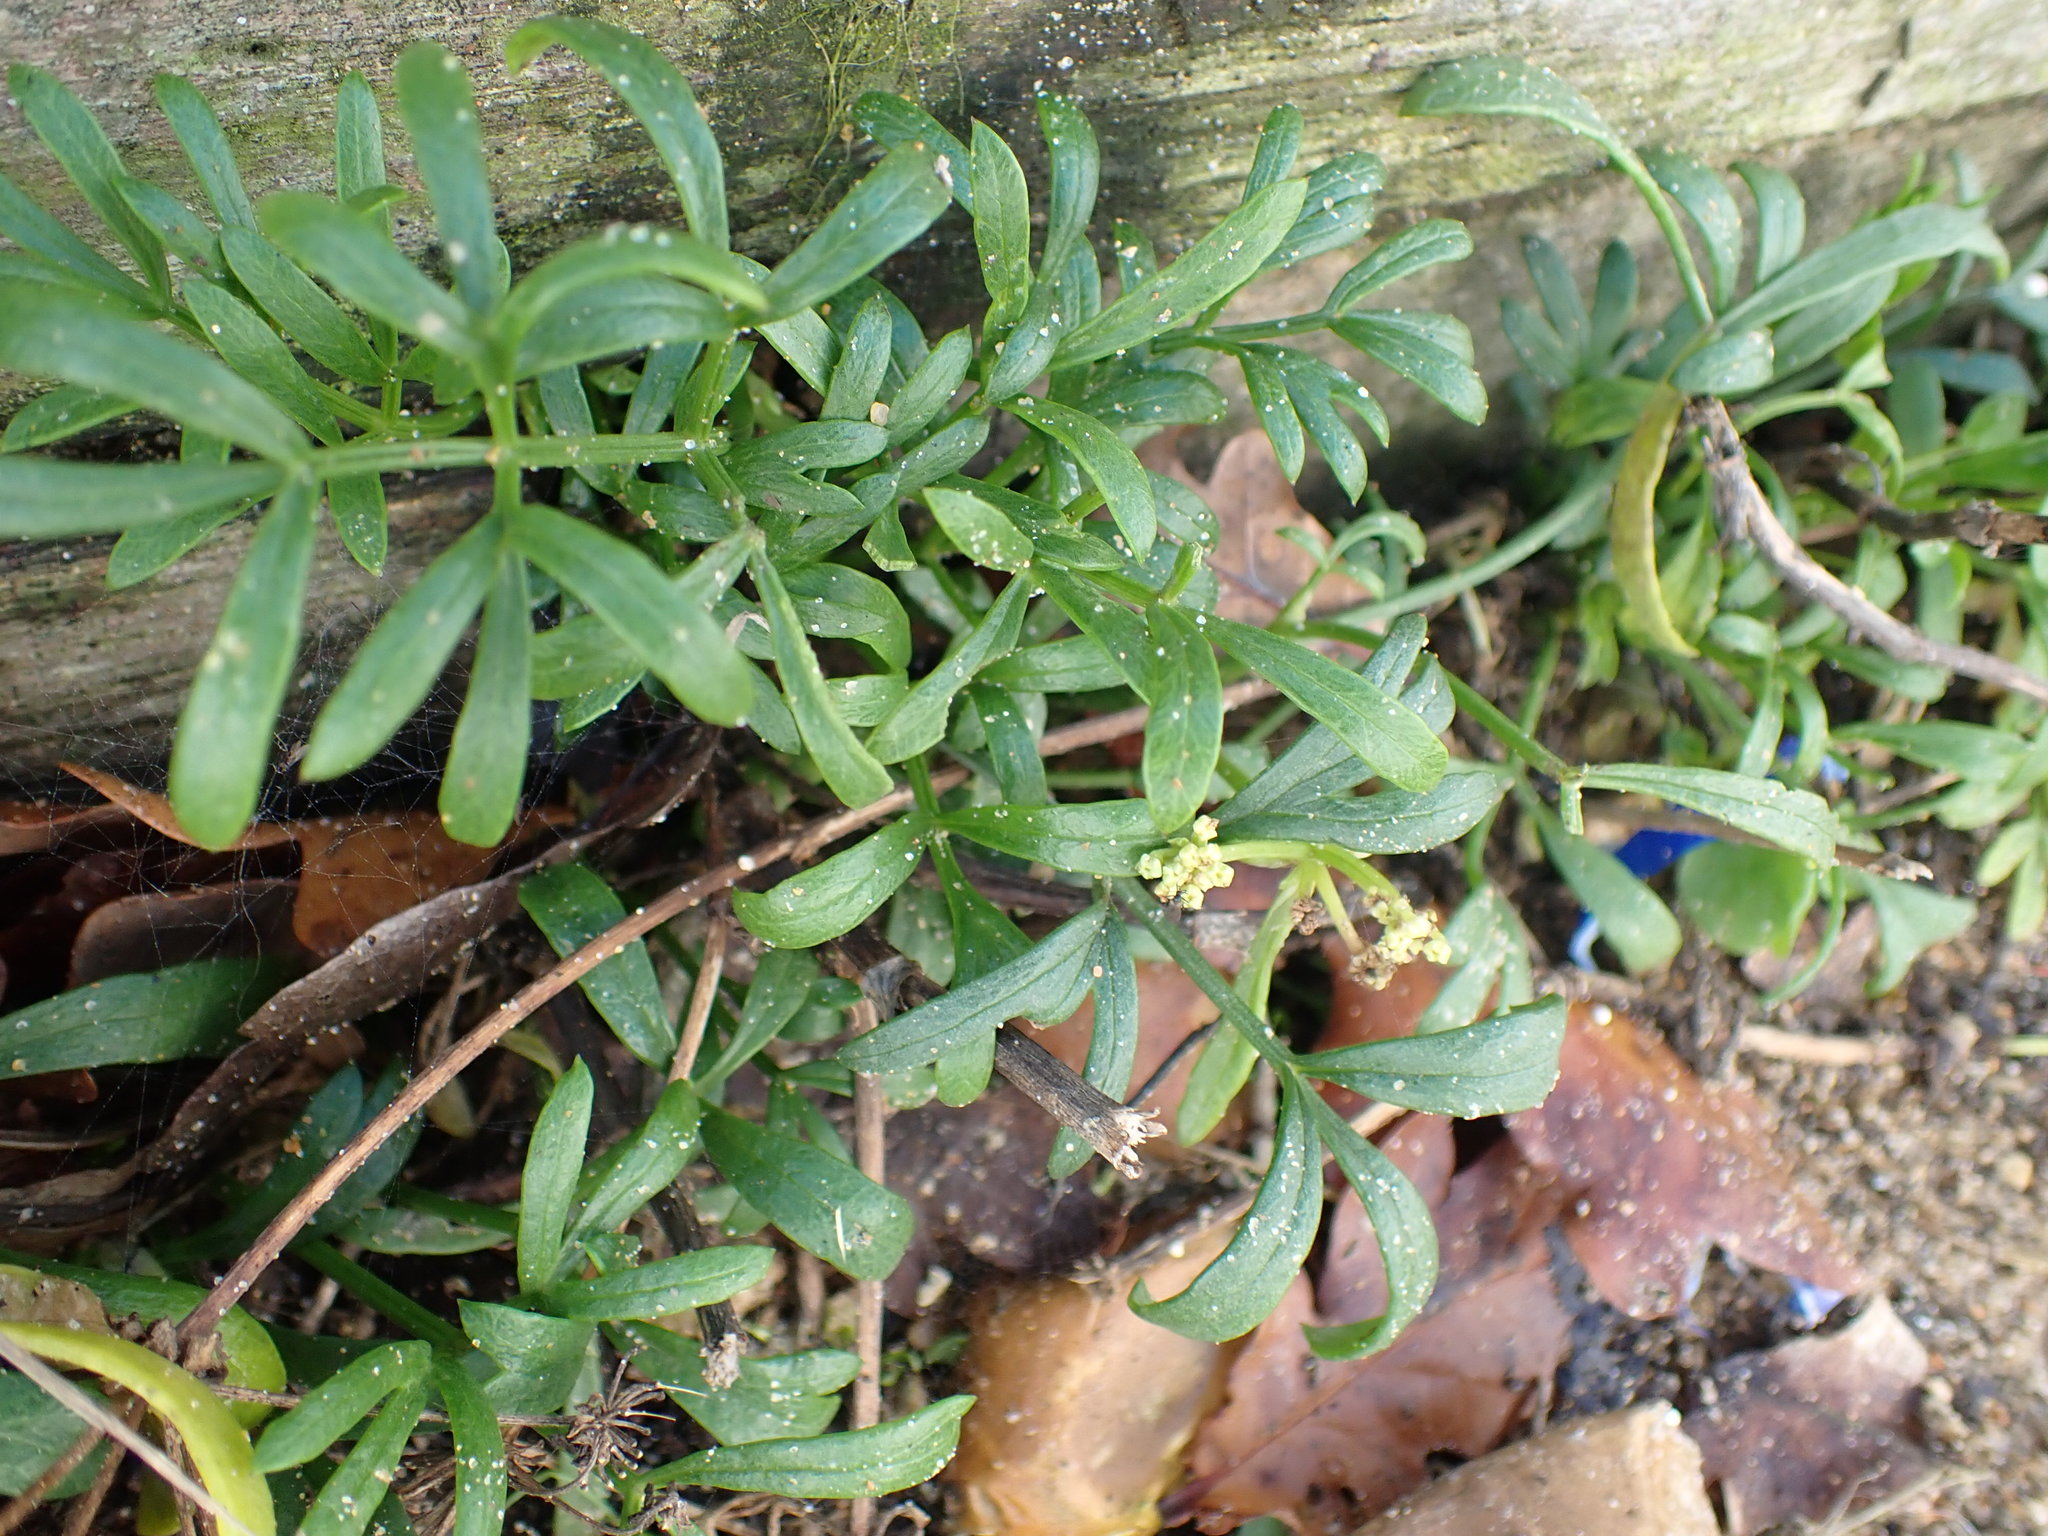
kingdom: Plantae
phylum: Tracheophyta
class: Magnoliopsida
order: Apiales
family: Apiaceae
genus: Crithmum
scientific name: Crithmum maritimum
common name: Rock samphire
